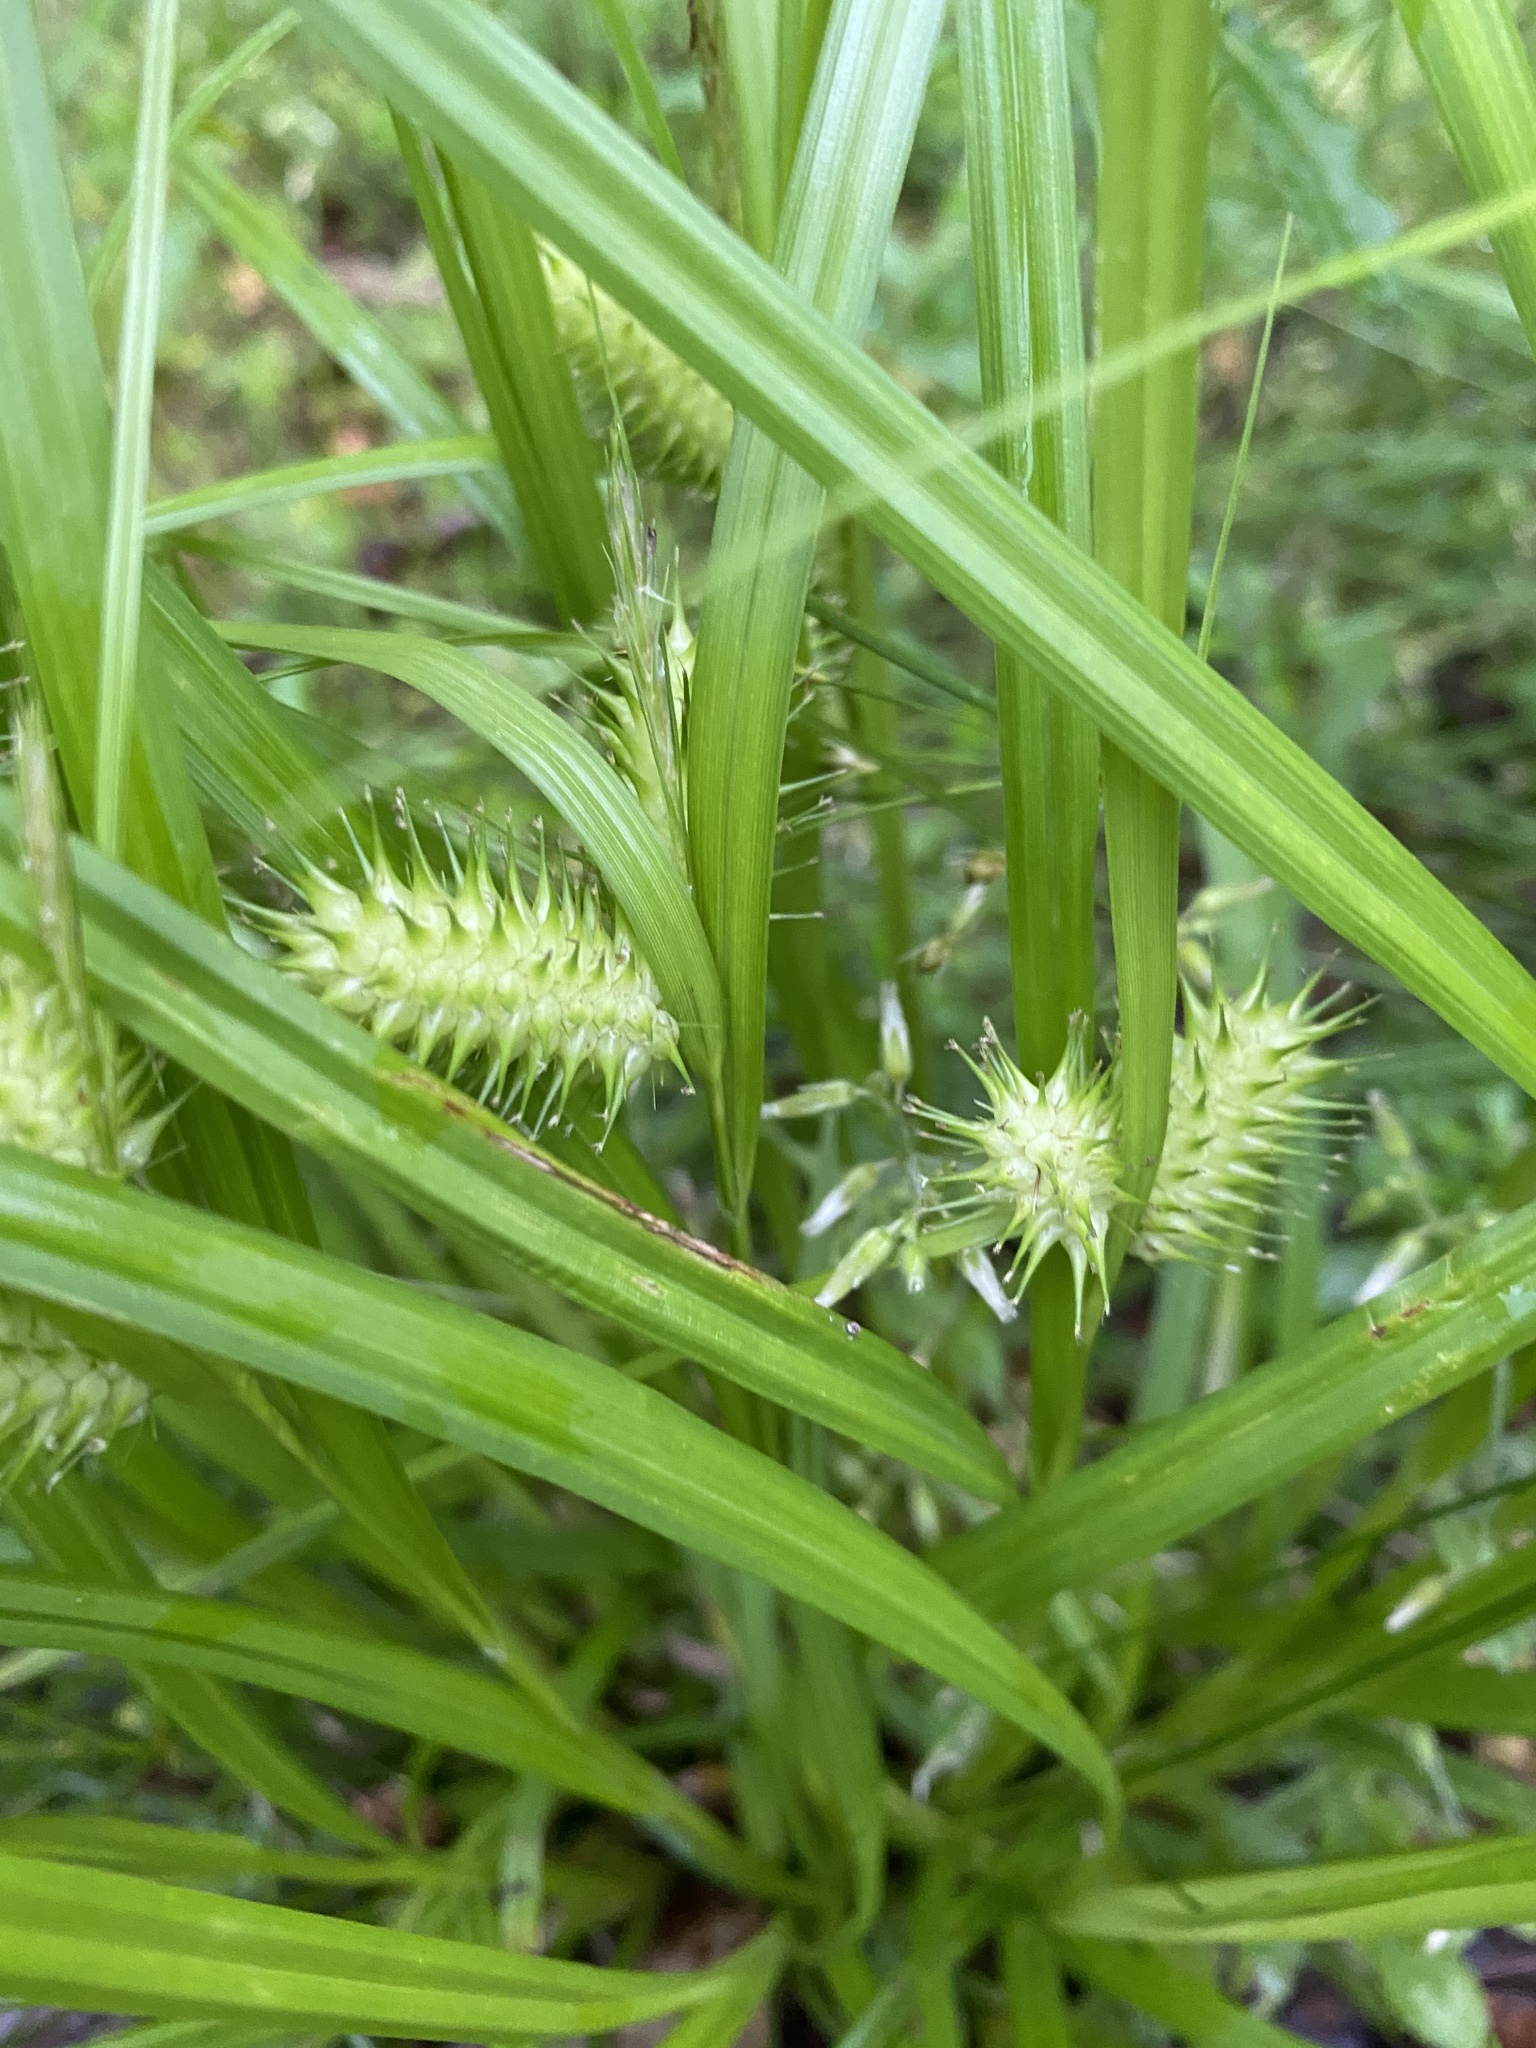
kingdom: Plantae
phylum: Tracheophyta
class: Liliopsida
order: Poales
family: Cyperaceae
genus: Carex
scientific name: Carex lurida
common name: Sallow sedge
